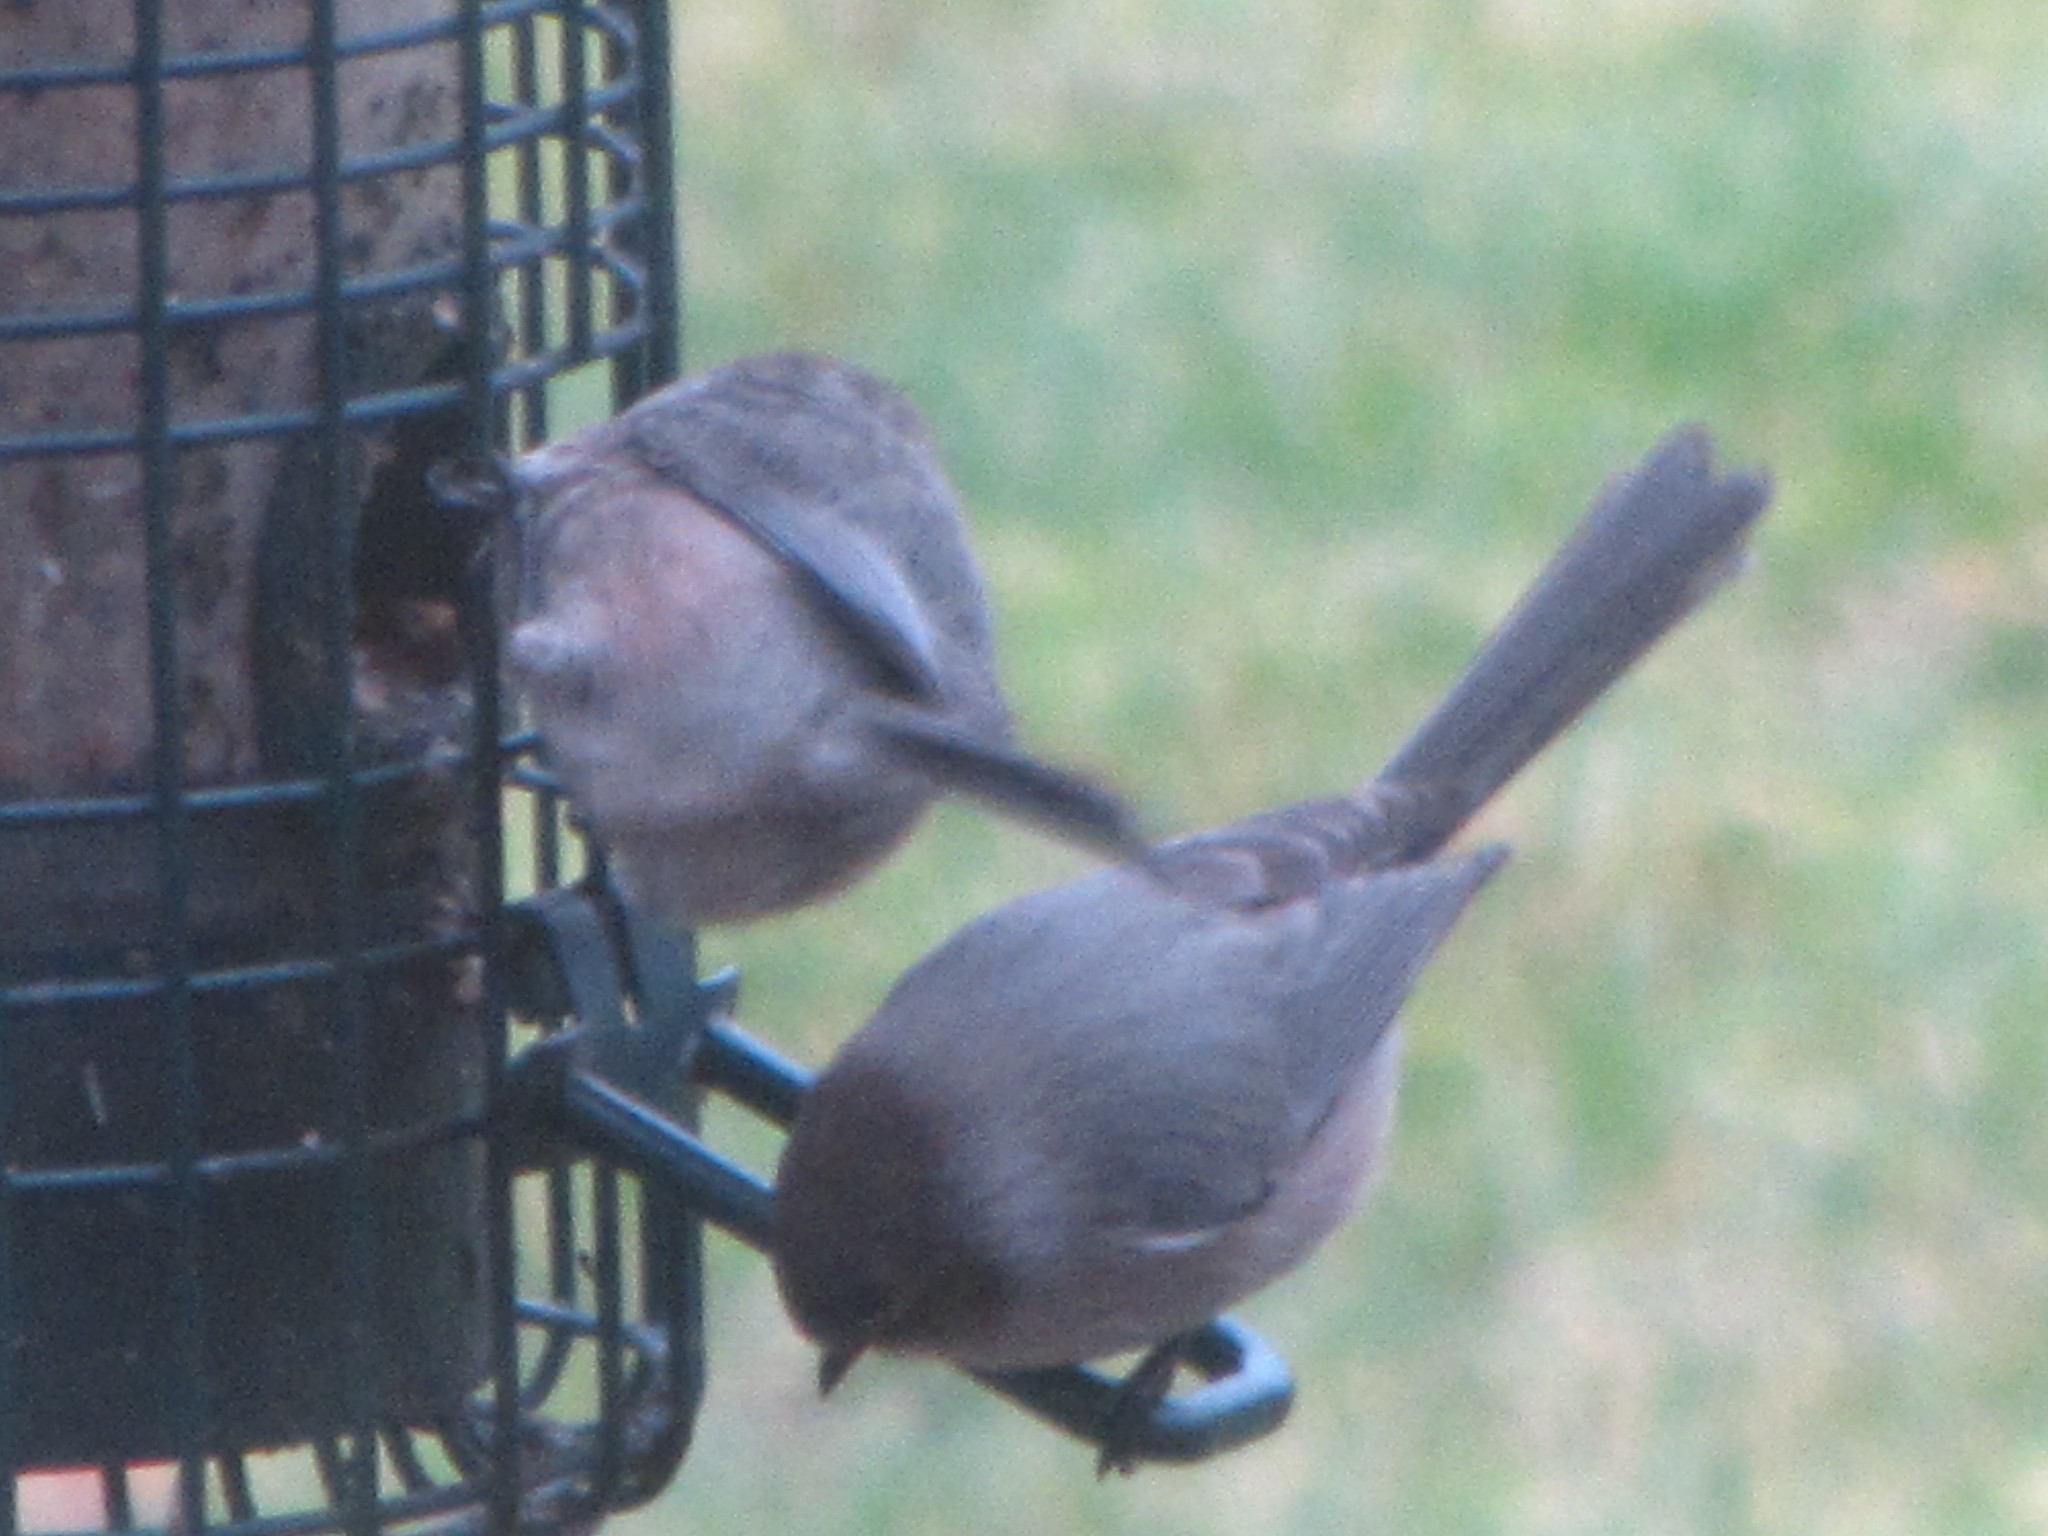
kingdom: Animalia
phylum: Chordata
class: Aves
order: Passeriformes
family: Aegithalidae
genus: Psaltriparus
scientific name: Psaltriparus minimus
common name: American bushtit
